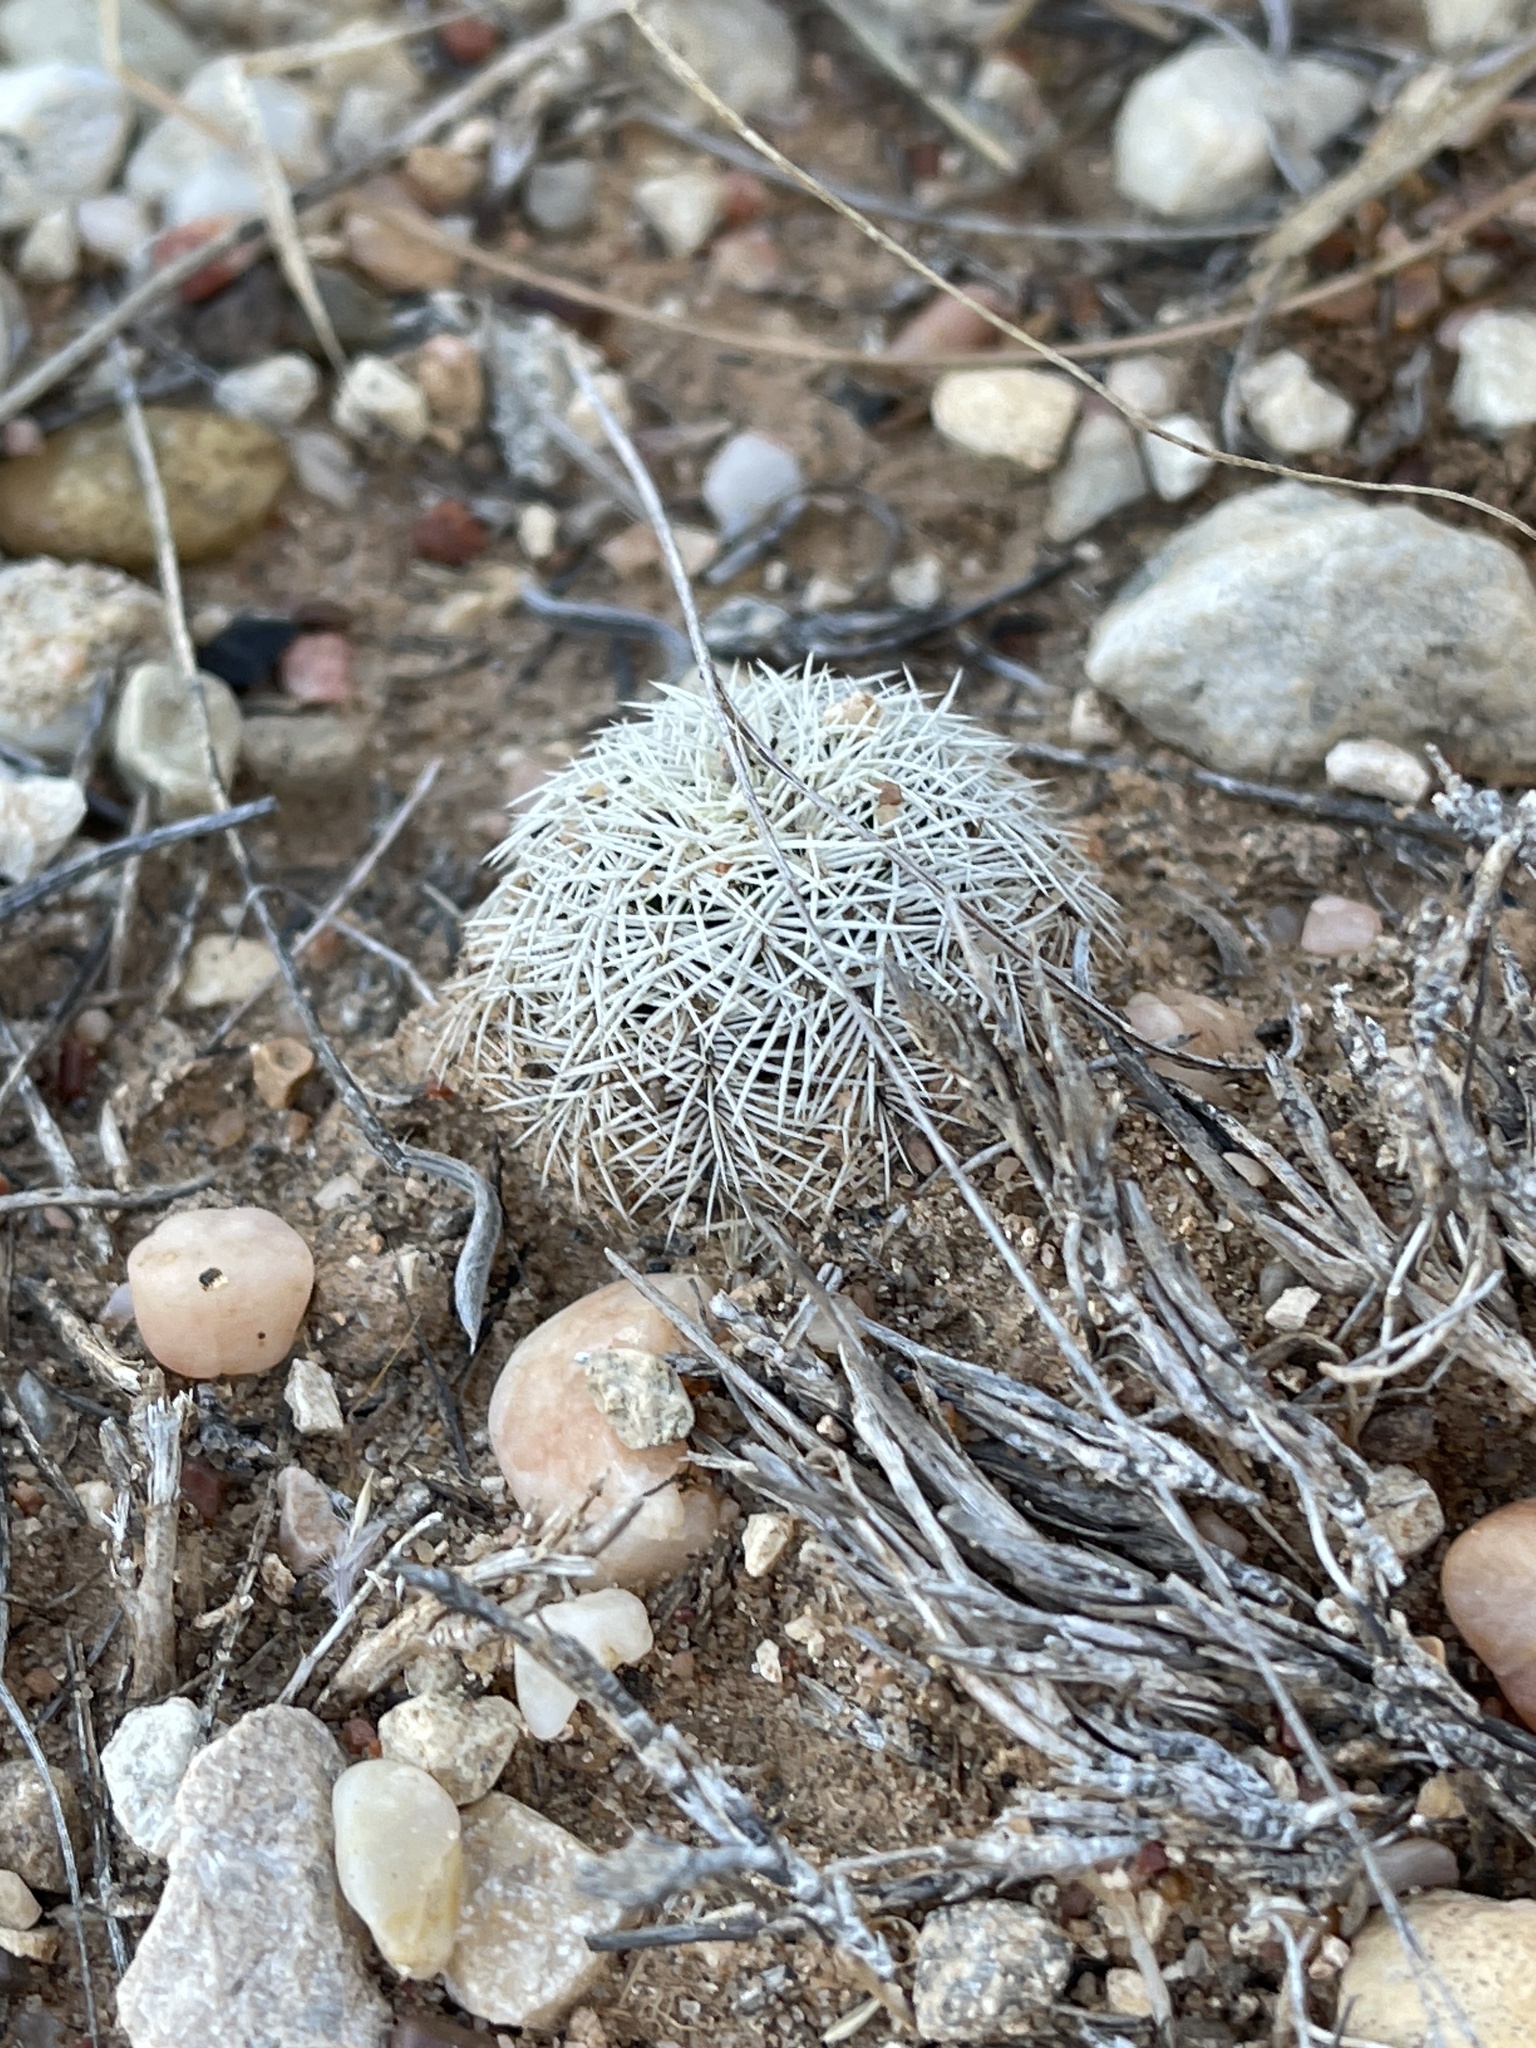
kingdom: Plantae
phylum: Tracheophyta
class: Magnoliopsida
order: Caryophyllales
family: Cactaceae
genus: Echinocereus
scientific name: Echinocereus reichenbachii
